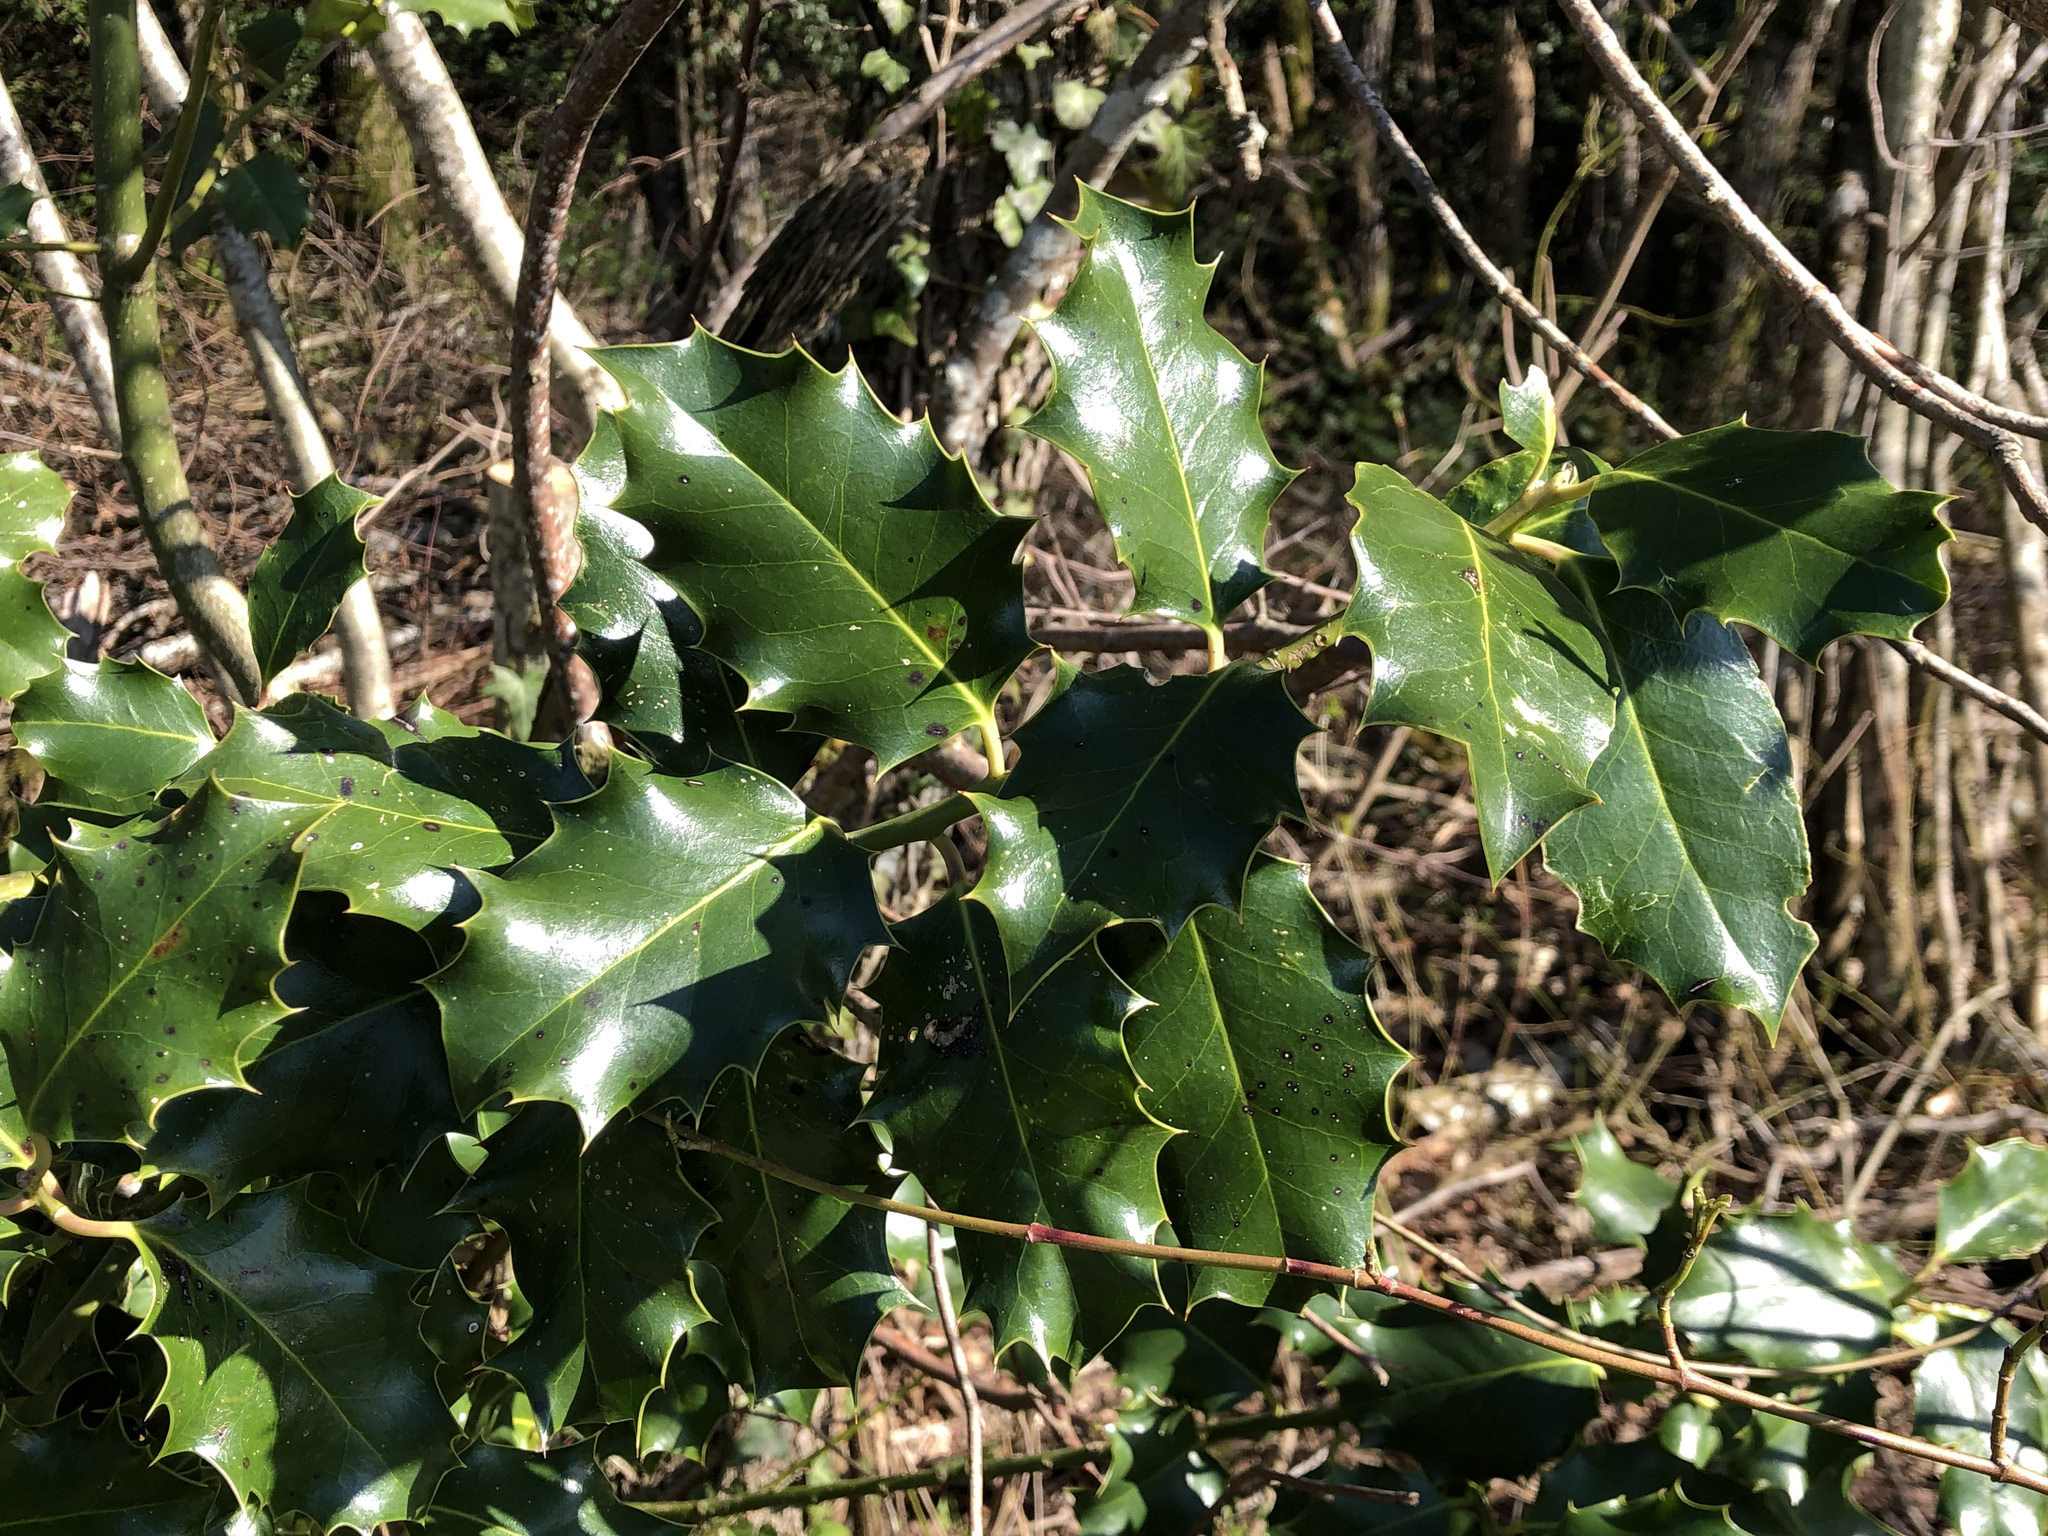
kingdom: Plantae
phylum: Tracheophyta
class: Magnoliopsida
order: Aquifoliales
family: Aquifoliaceae
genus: Ilex
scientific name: Ilex aquifolium
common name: English holly
